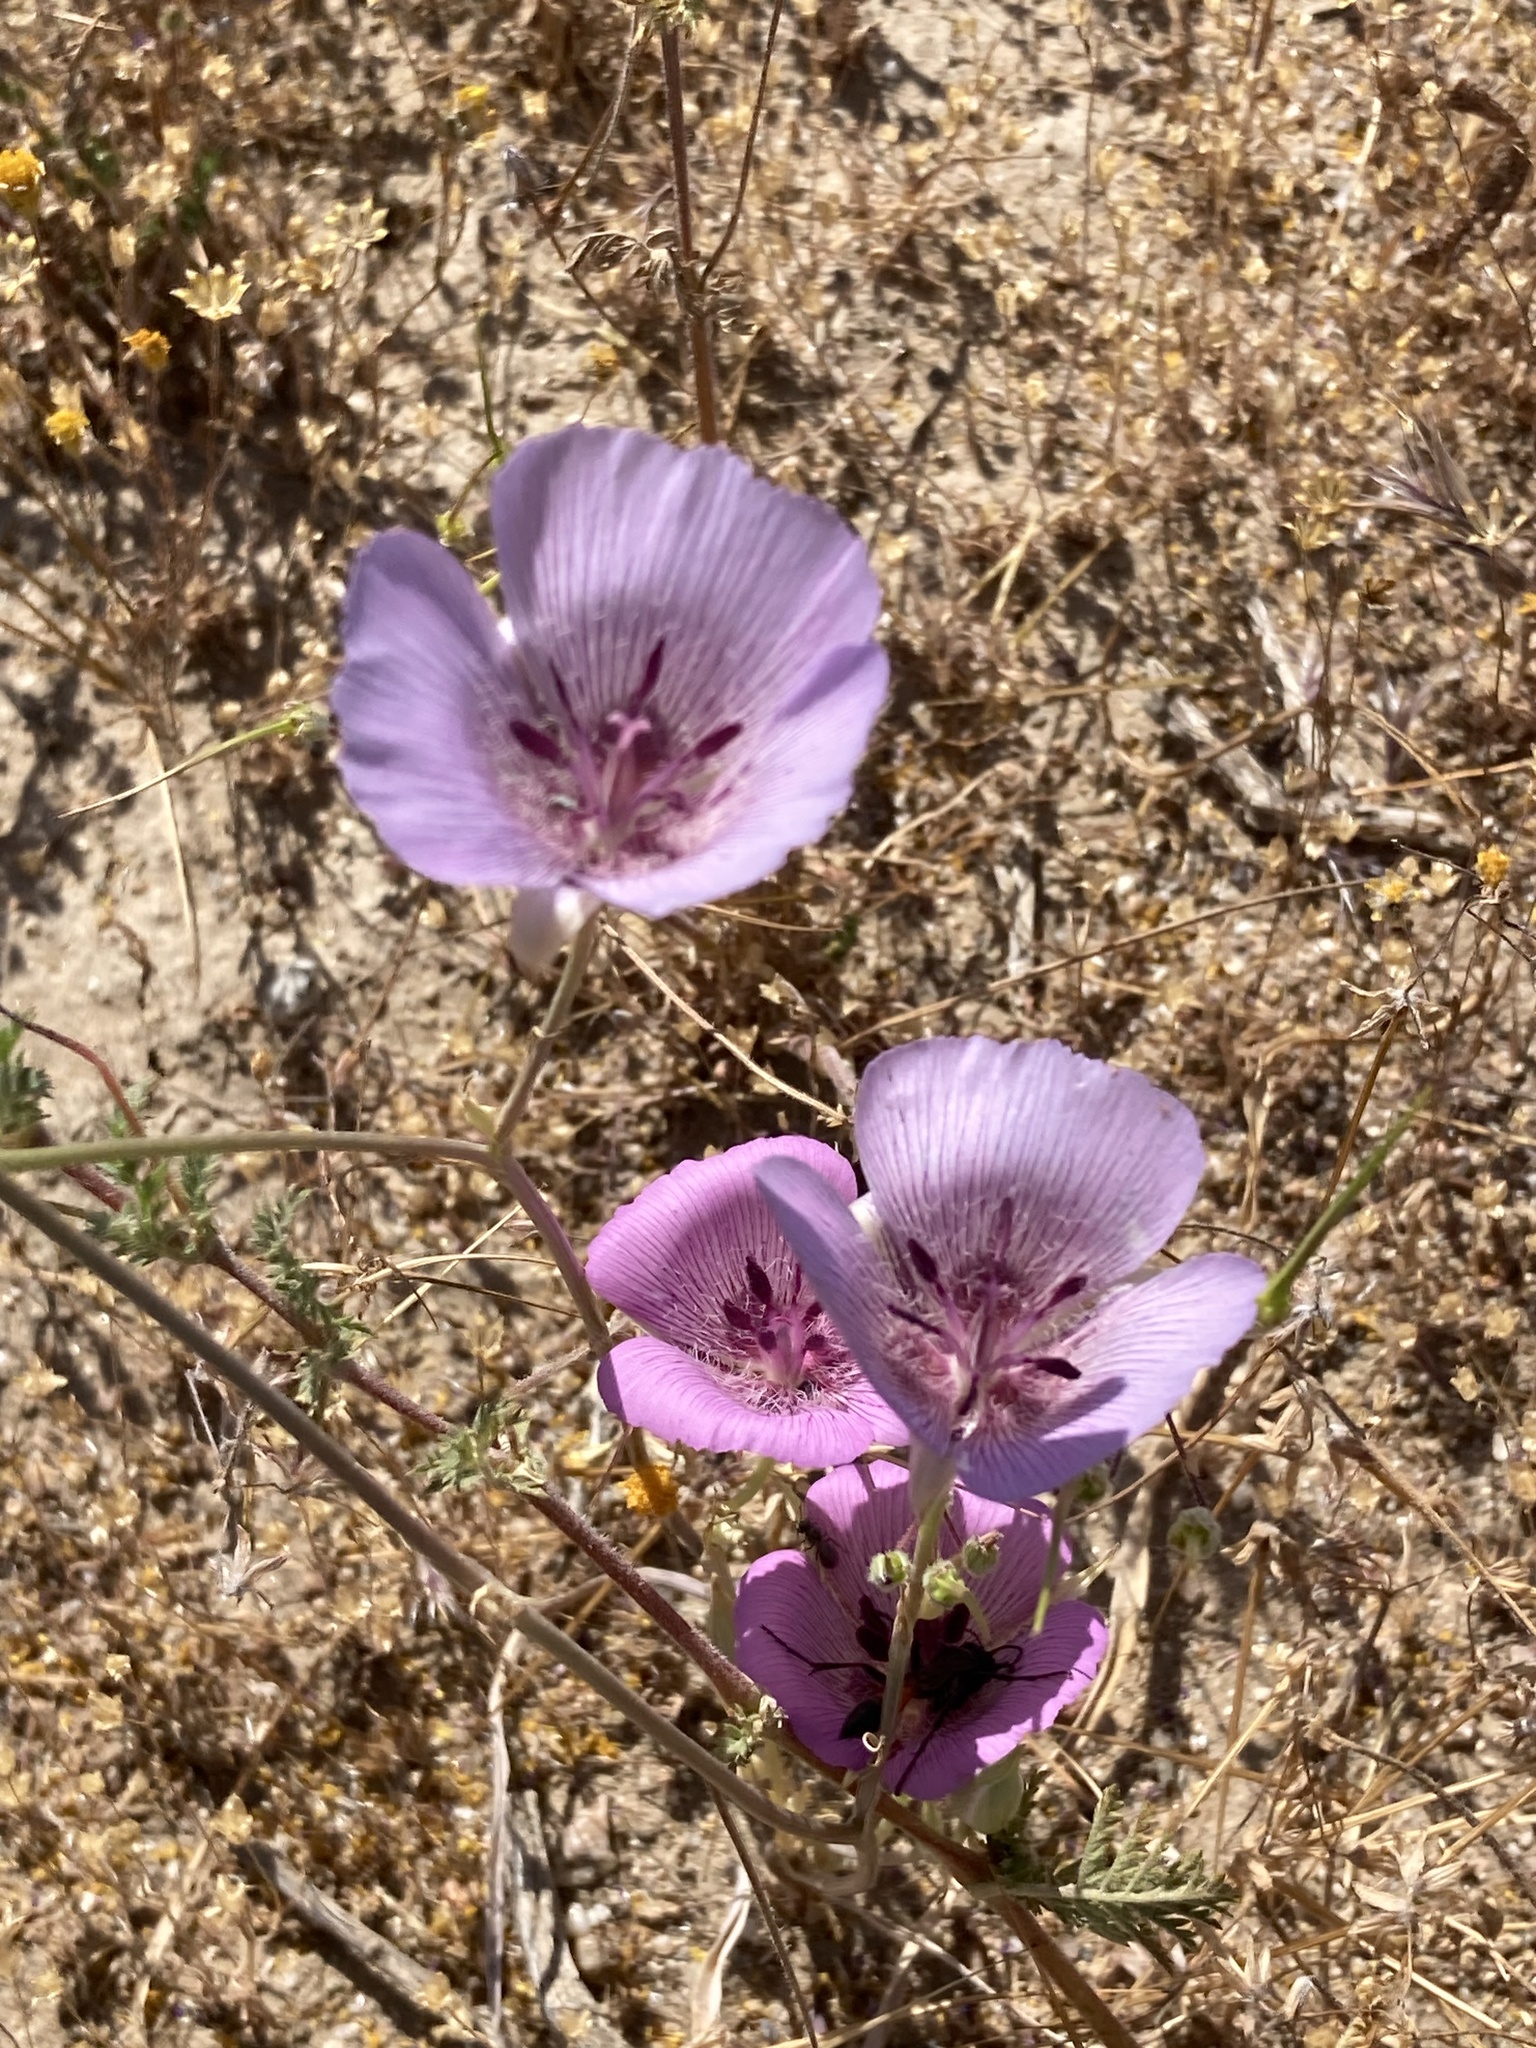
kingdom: Plantae
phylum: Tracheophyta
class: Liliopsida
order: Liliales
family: Liliaceae
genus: Calochortus
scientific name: Calochortus striatus
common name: Alkali mariposa-lily
